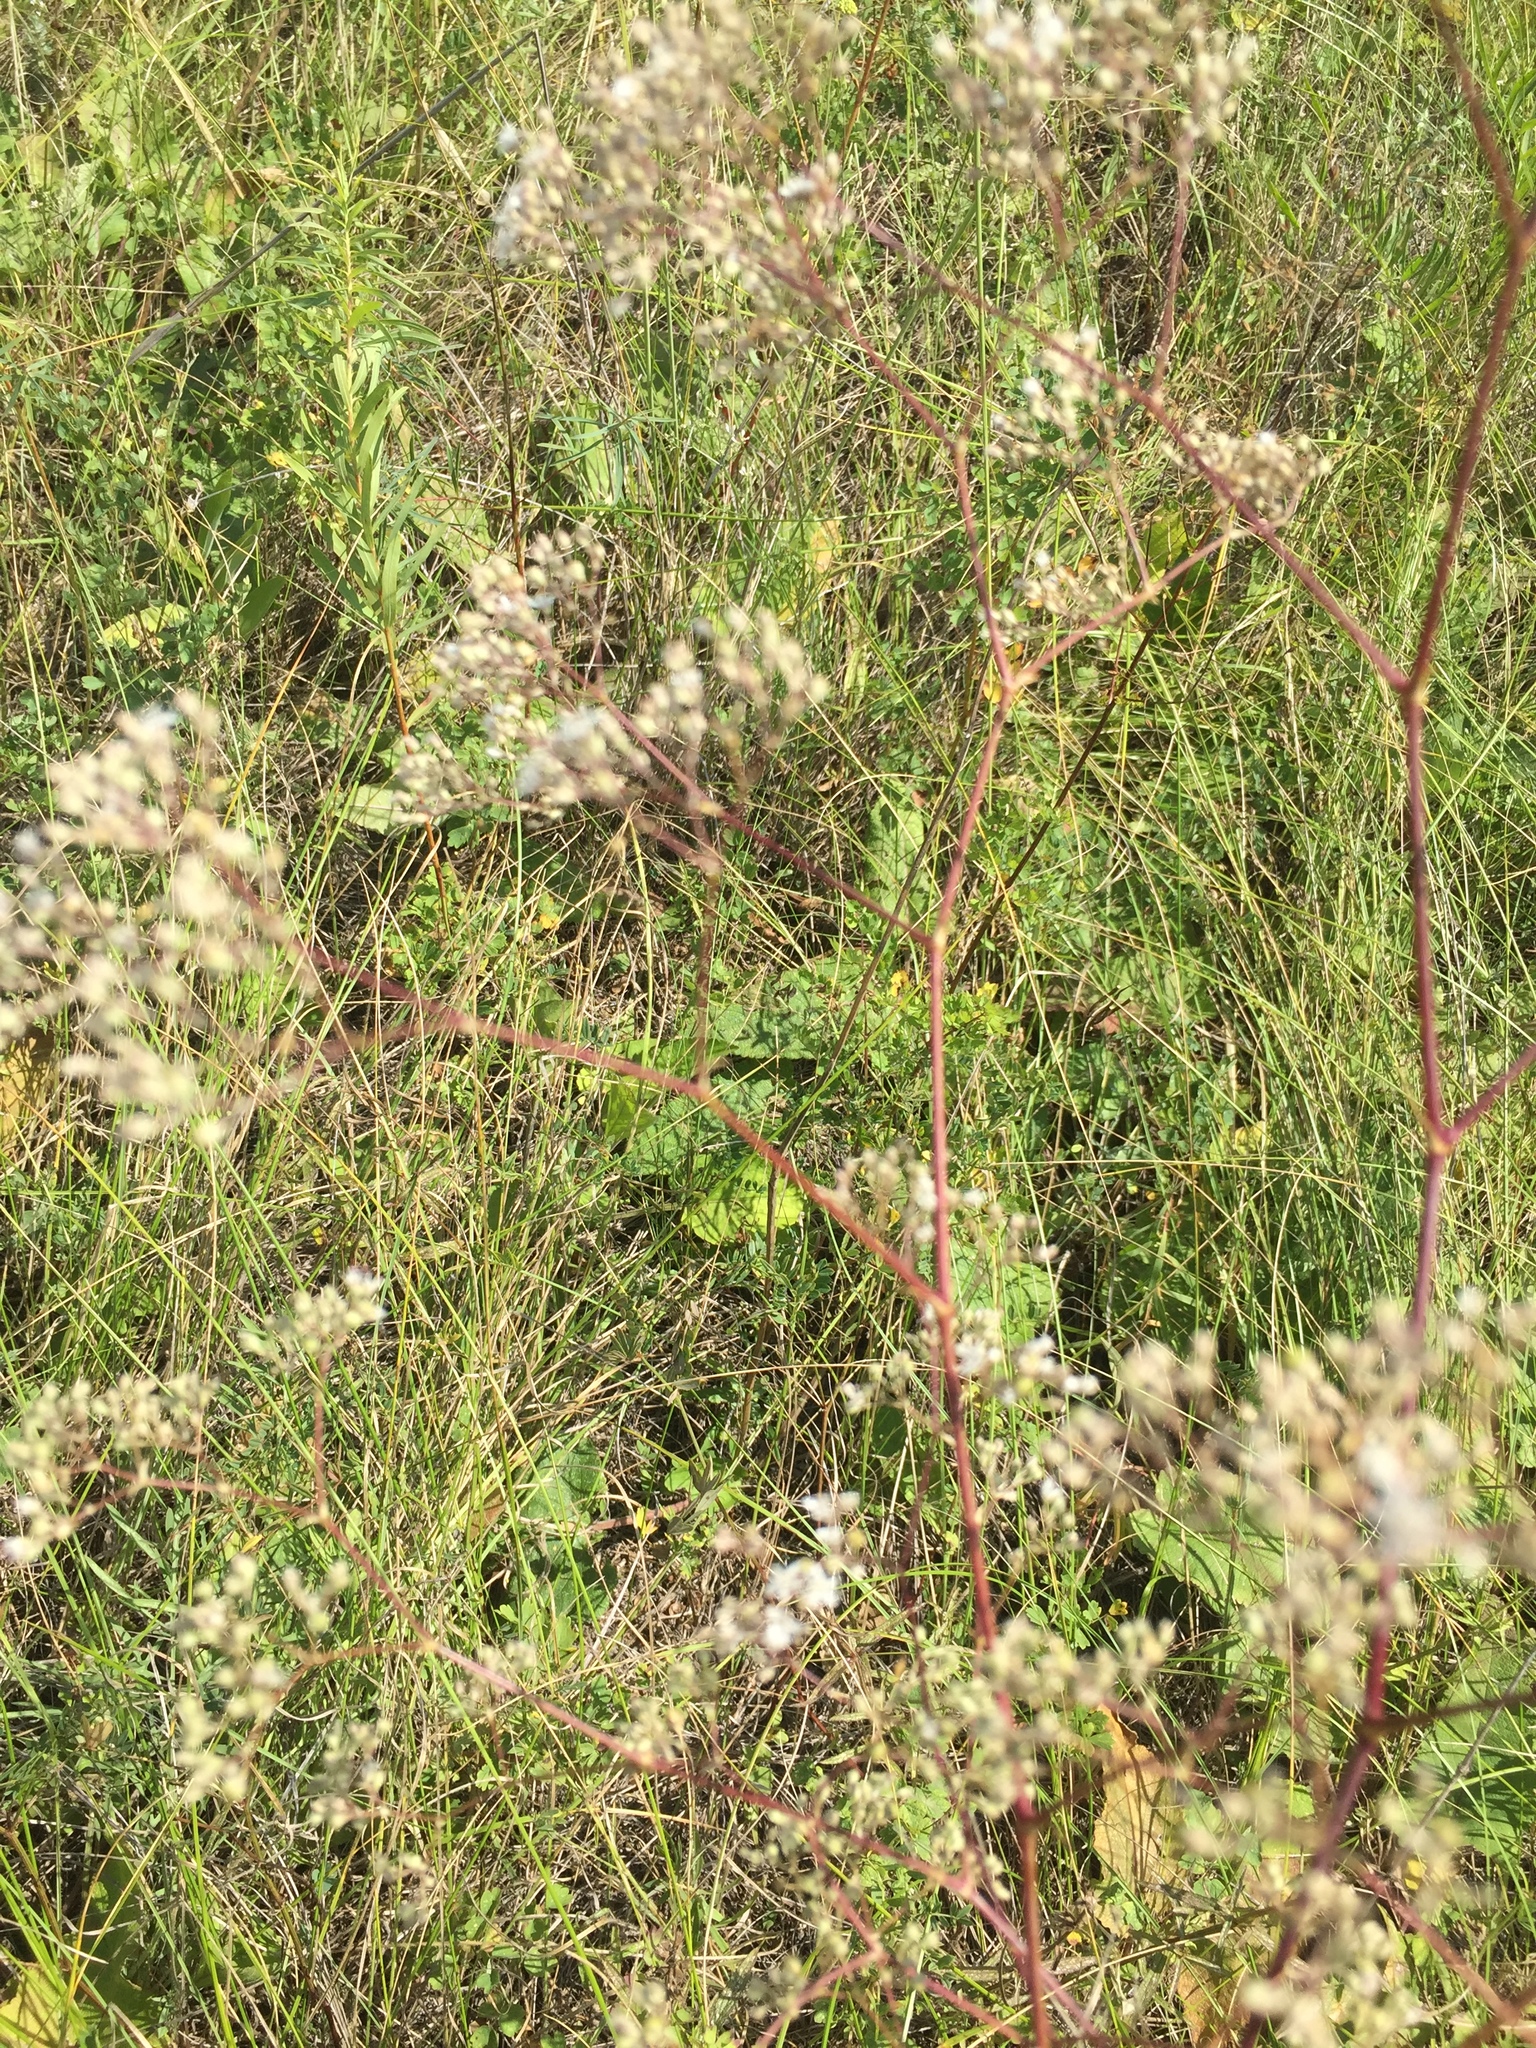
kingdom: Plantae
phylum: Tracheophyta
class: Magnoliopsida
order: Caryophyllales
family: Caryophyllaceae
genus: Gypsophila
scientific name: Gypsophila altissima
